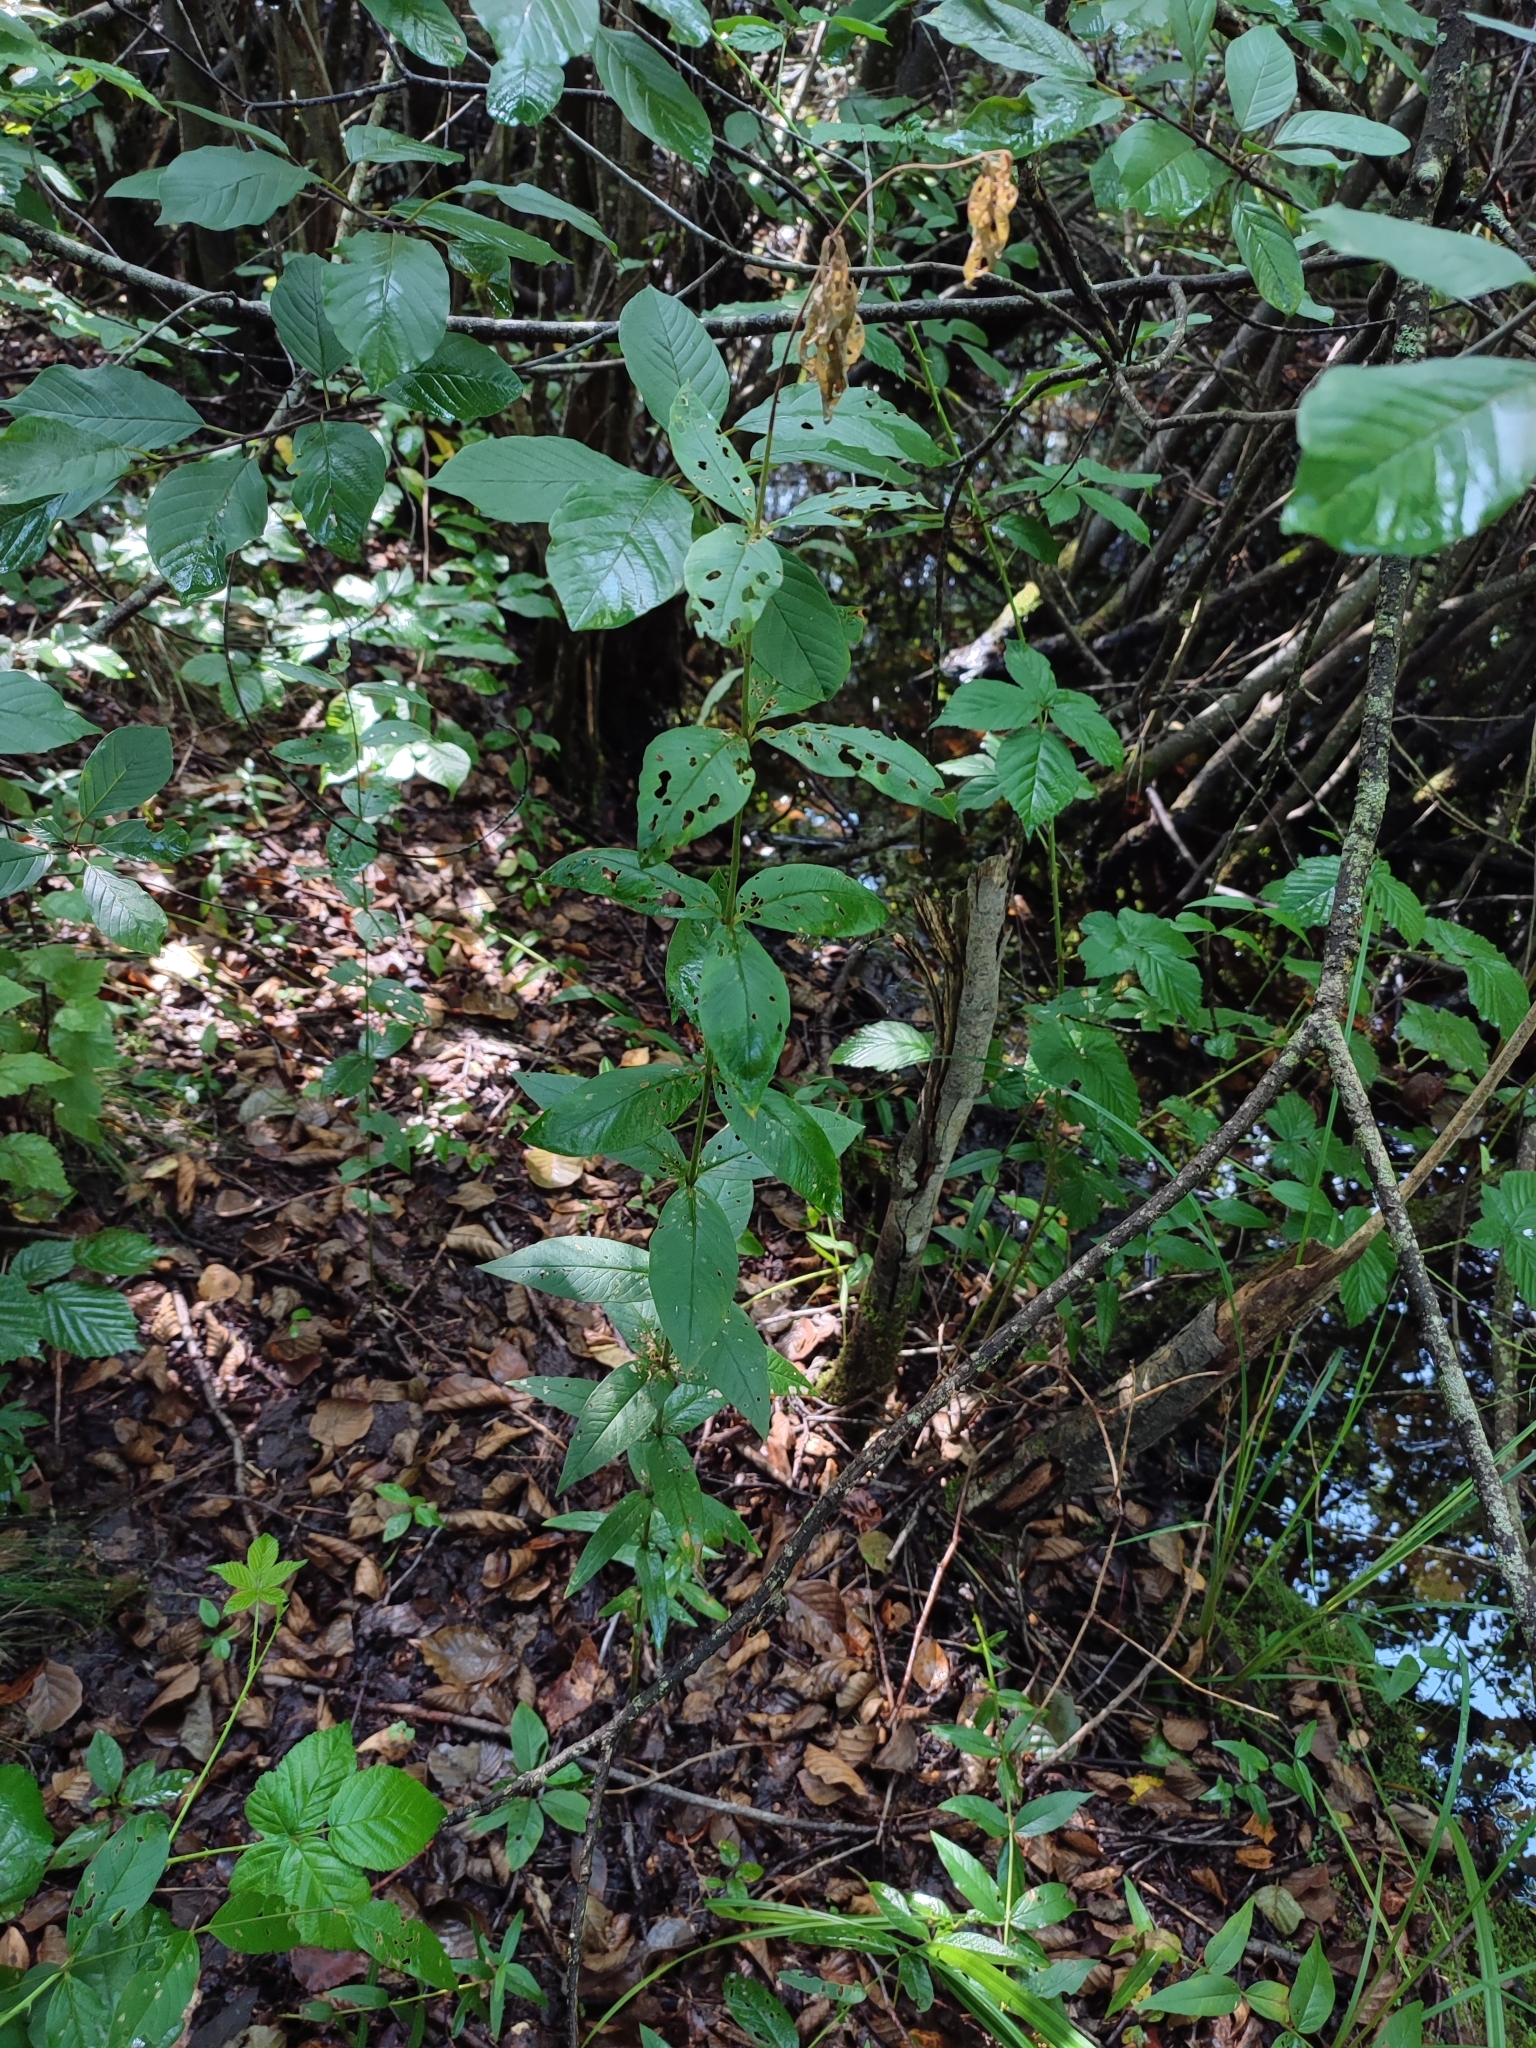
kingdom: Plantae
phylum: Tracheophyta
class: Magnoliopsida
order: Ericales
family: Primulaceae
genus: Lysimachia
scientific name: Lysimachia vulgaris
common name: Yellow loosestrife
